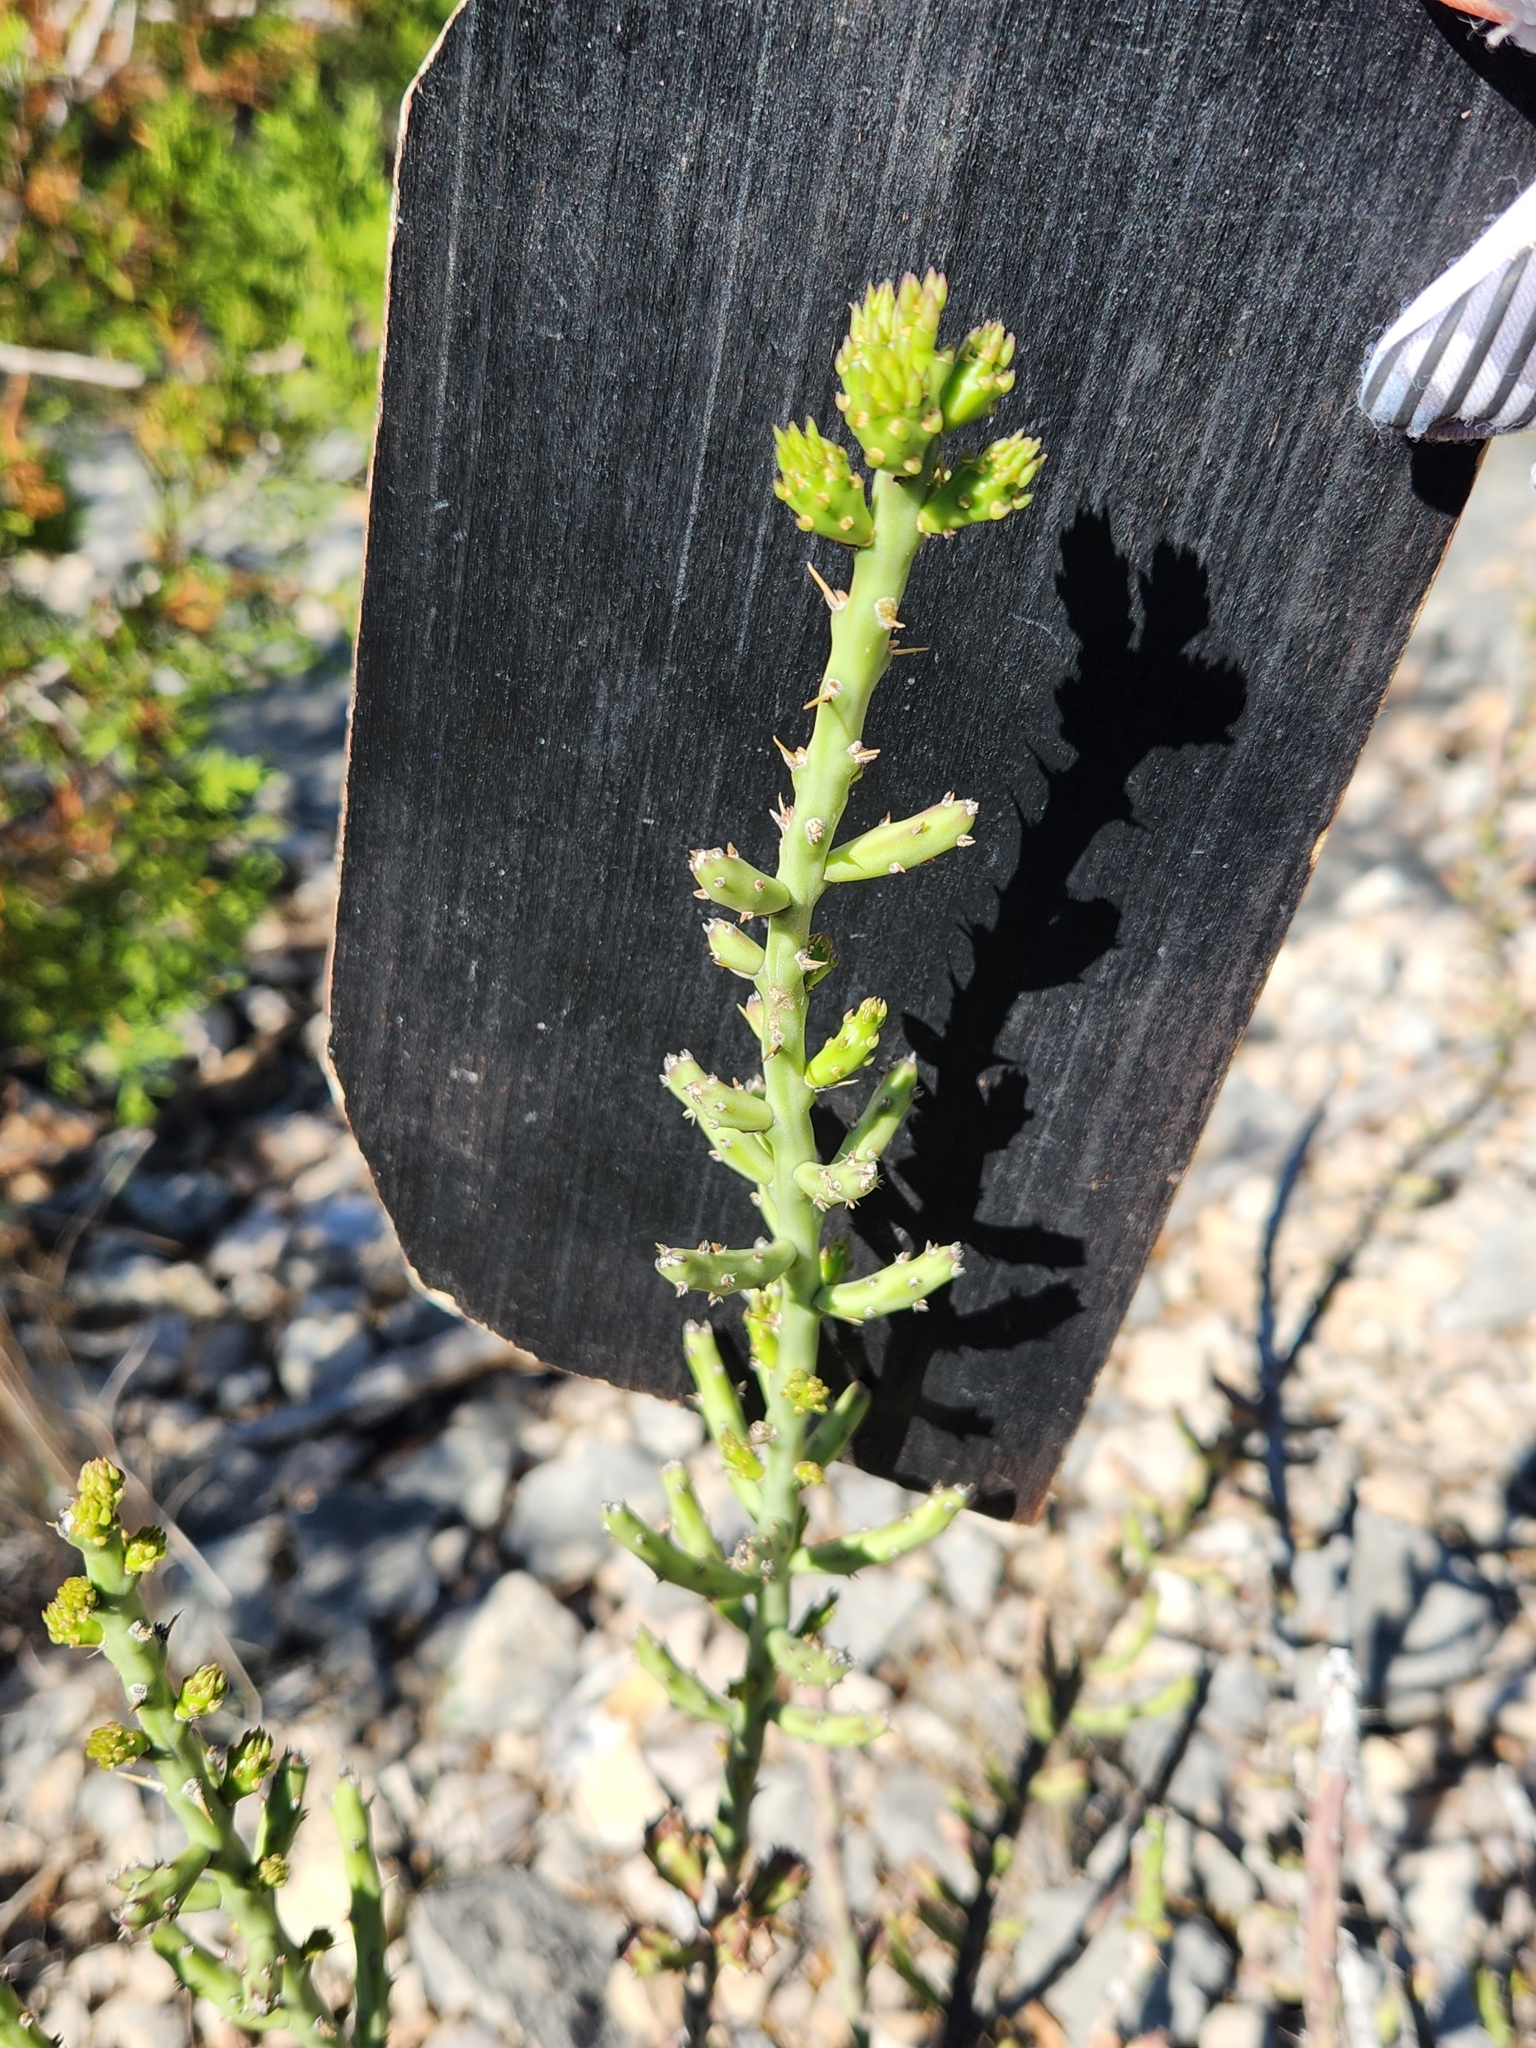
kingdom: Plantae
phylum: Tracheophyta
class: Magnoliopsida
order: Caryophyllales
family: Cactaceae
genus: Cylindropuntia
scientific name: Cylindropuntia leptocaulis
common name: Christmas cactus
